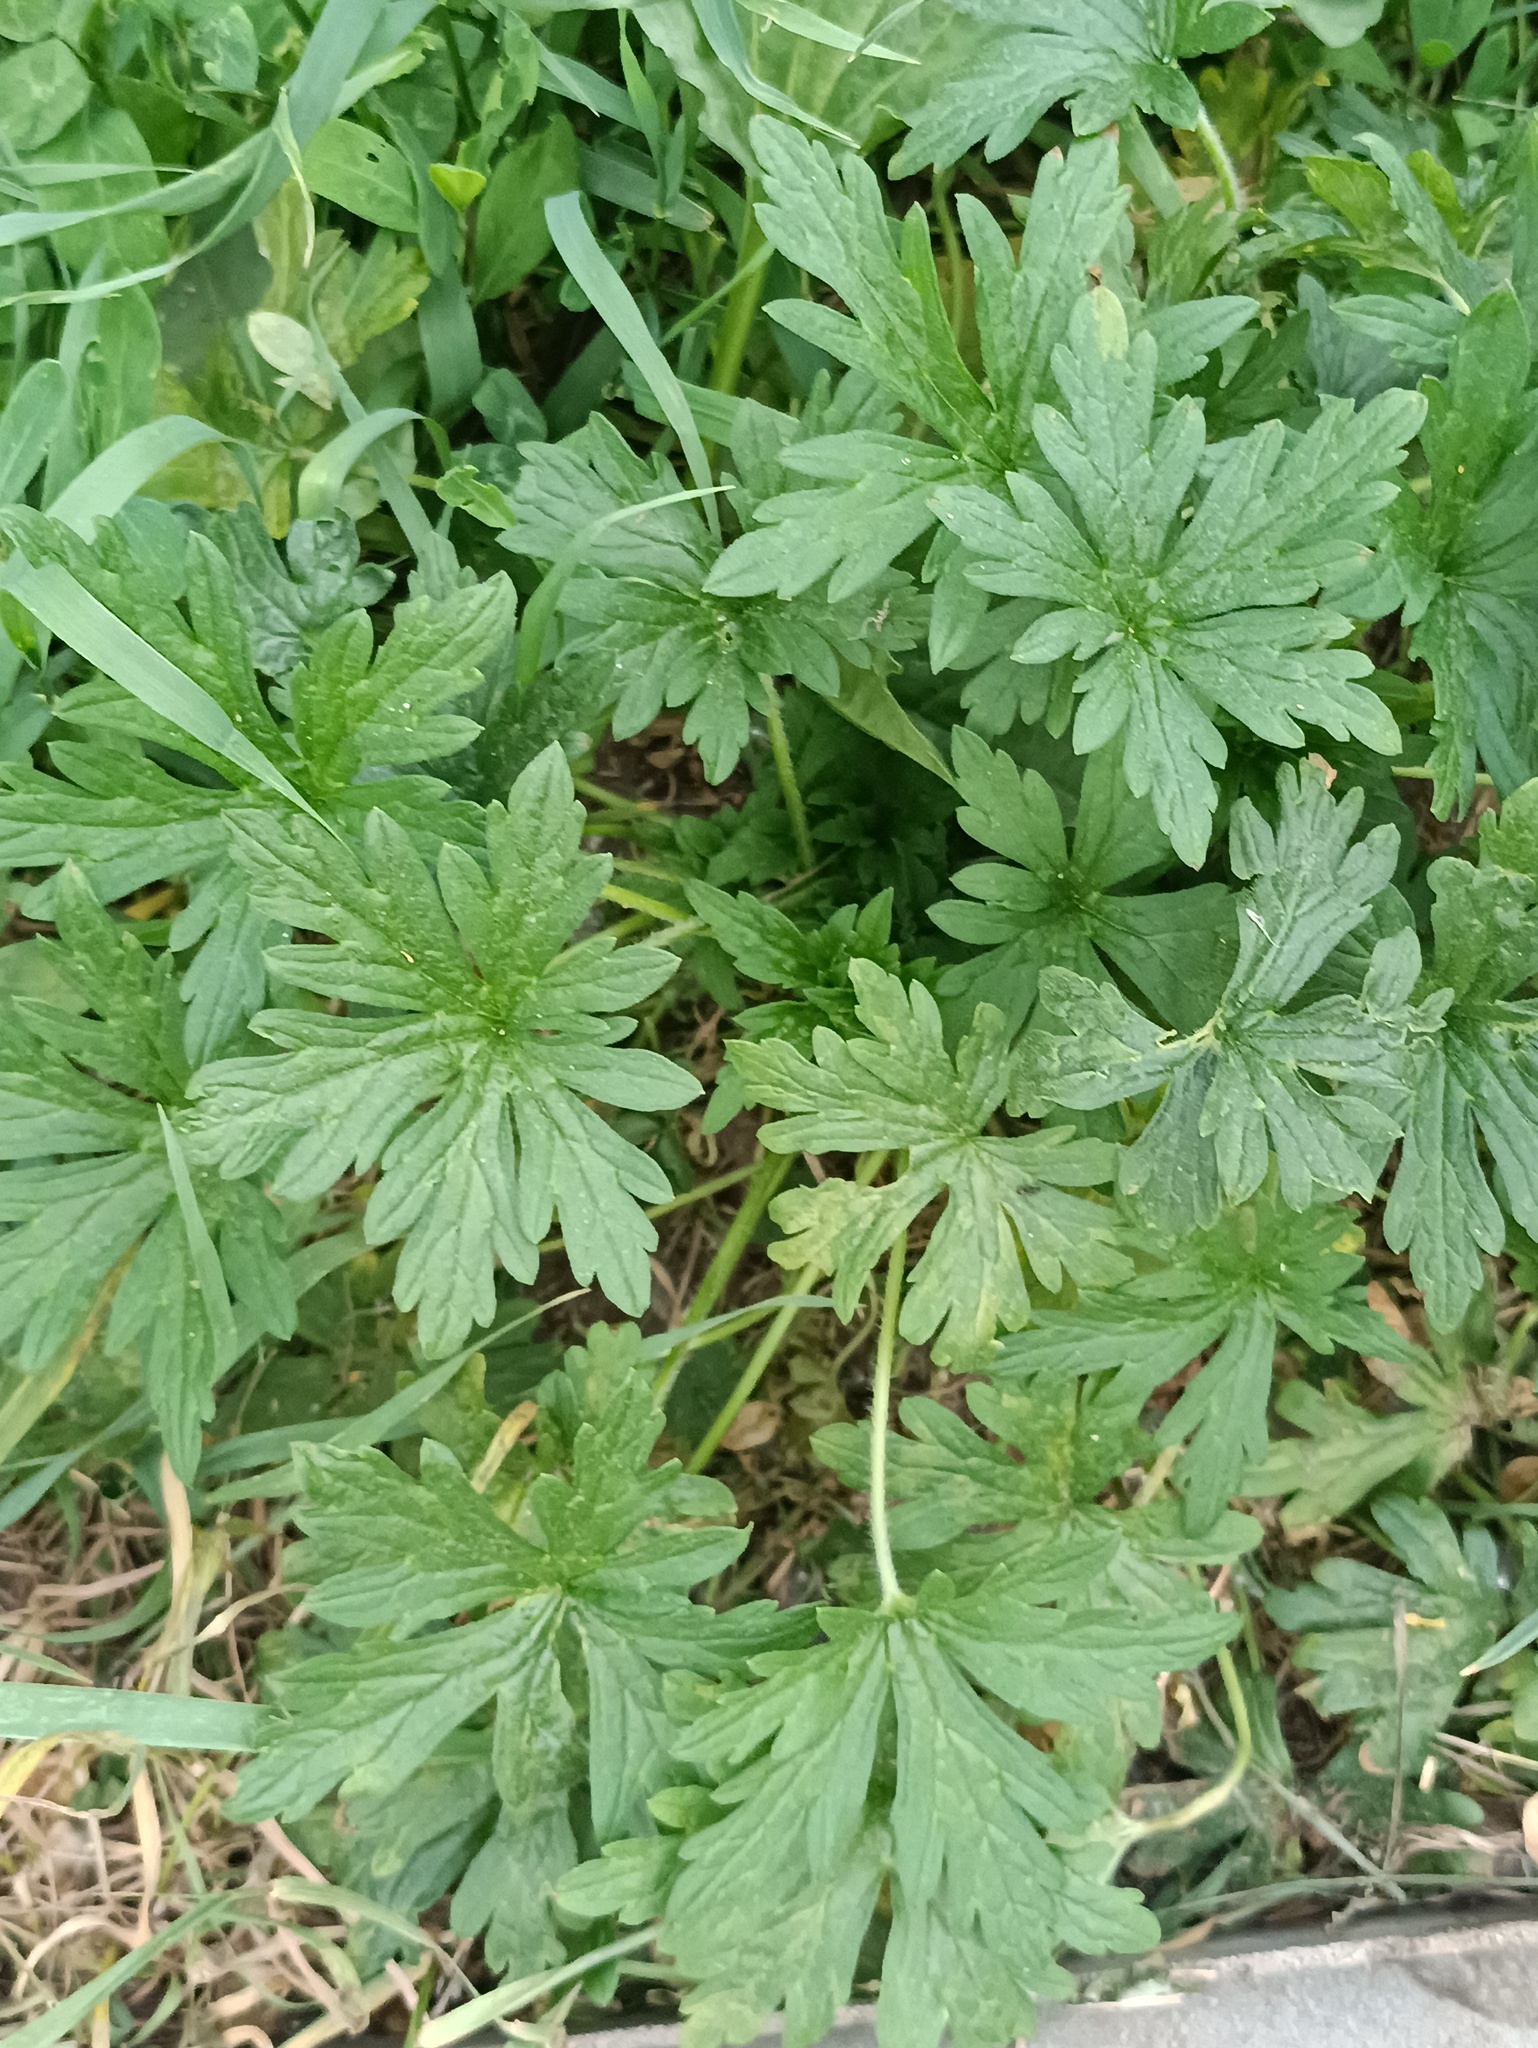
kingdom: Plantae
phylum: Tracheophyta
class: Magnoliopsida
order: Geraniales
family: Geraniaceae
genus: Geranium
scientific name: Geranium sibiricum
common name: Siberian crane's-bill
